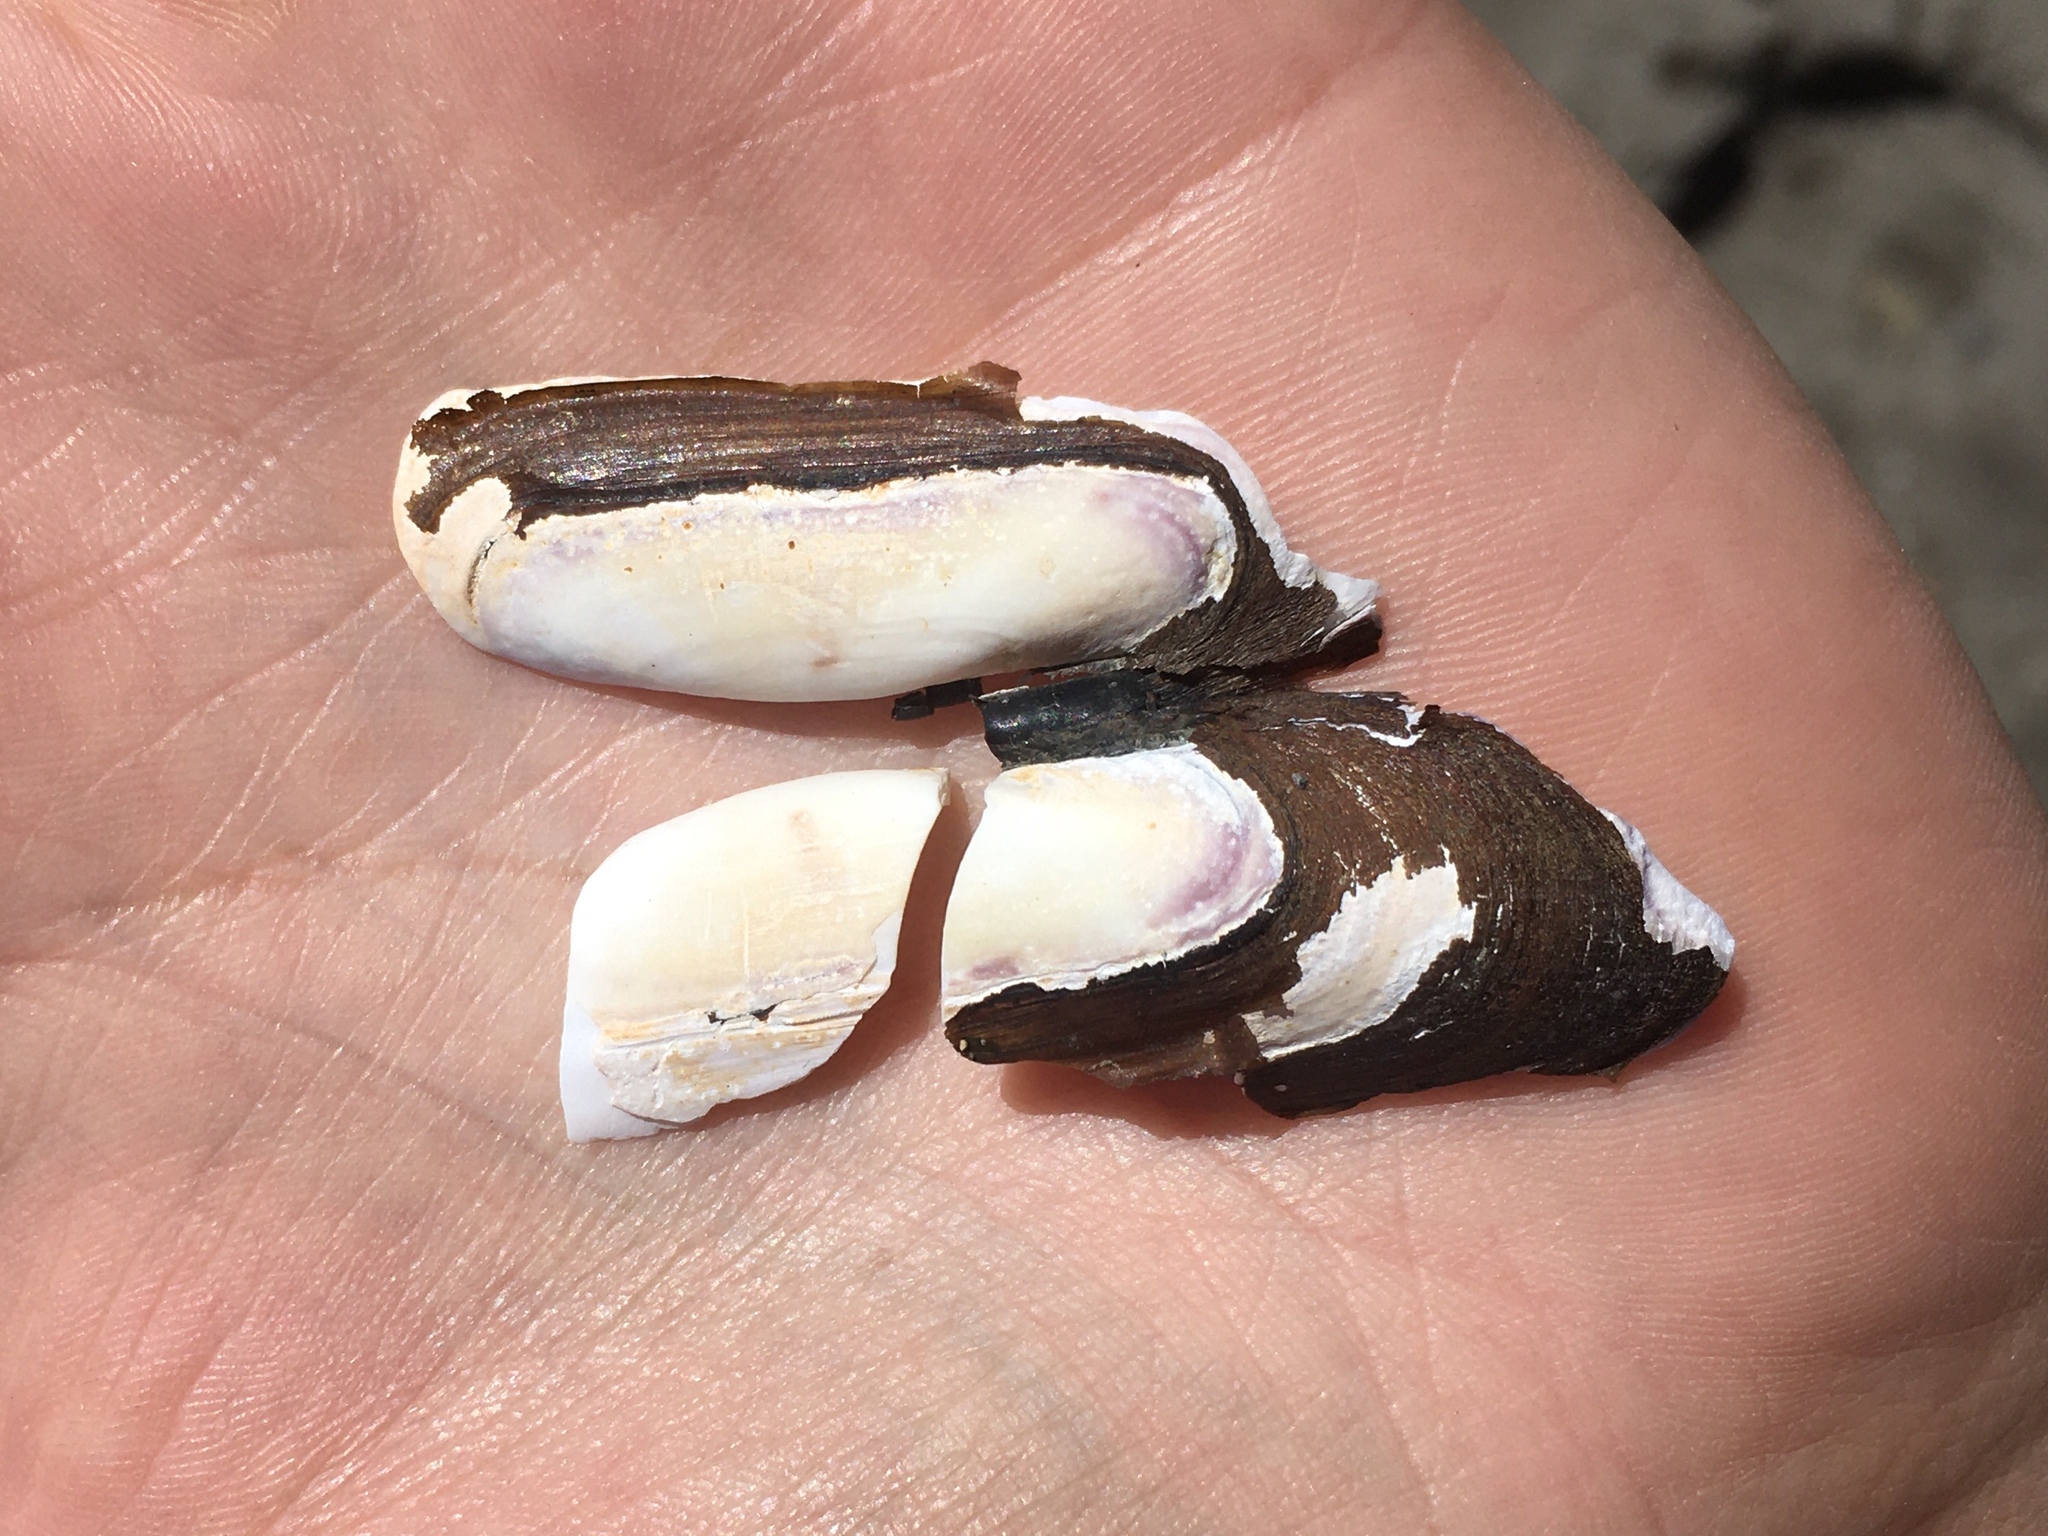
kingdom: Animalia
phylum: Mollusca
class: Bivalvia
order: Cardiida
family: Solecurtidae
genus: Tagelus
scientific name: Tagelus dombeii
